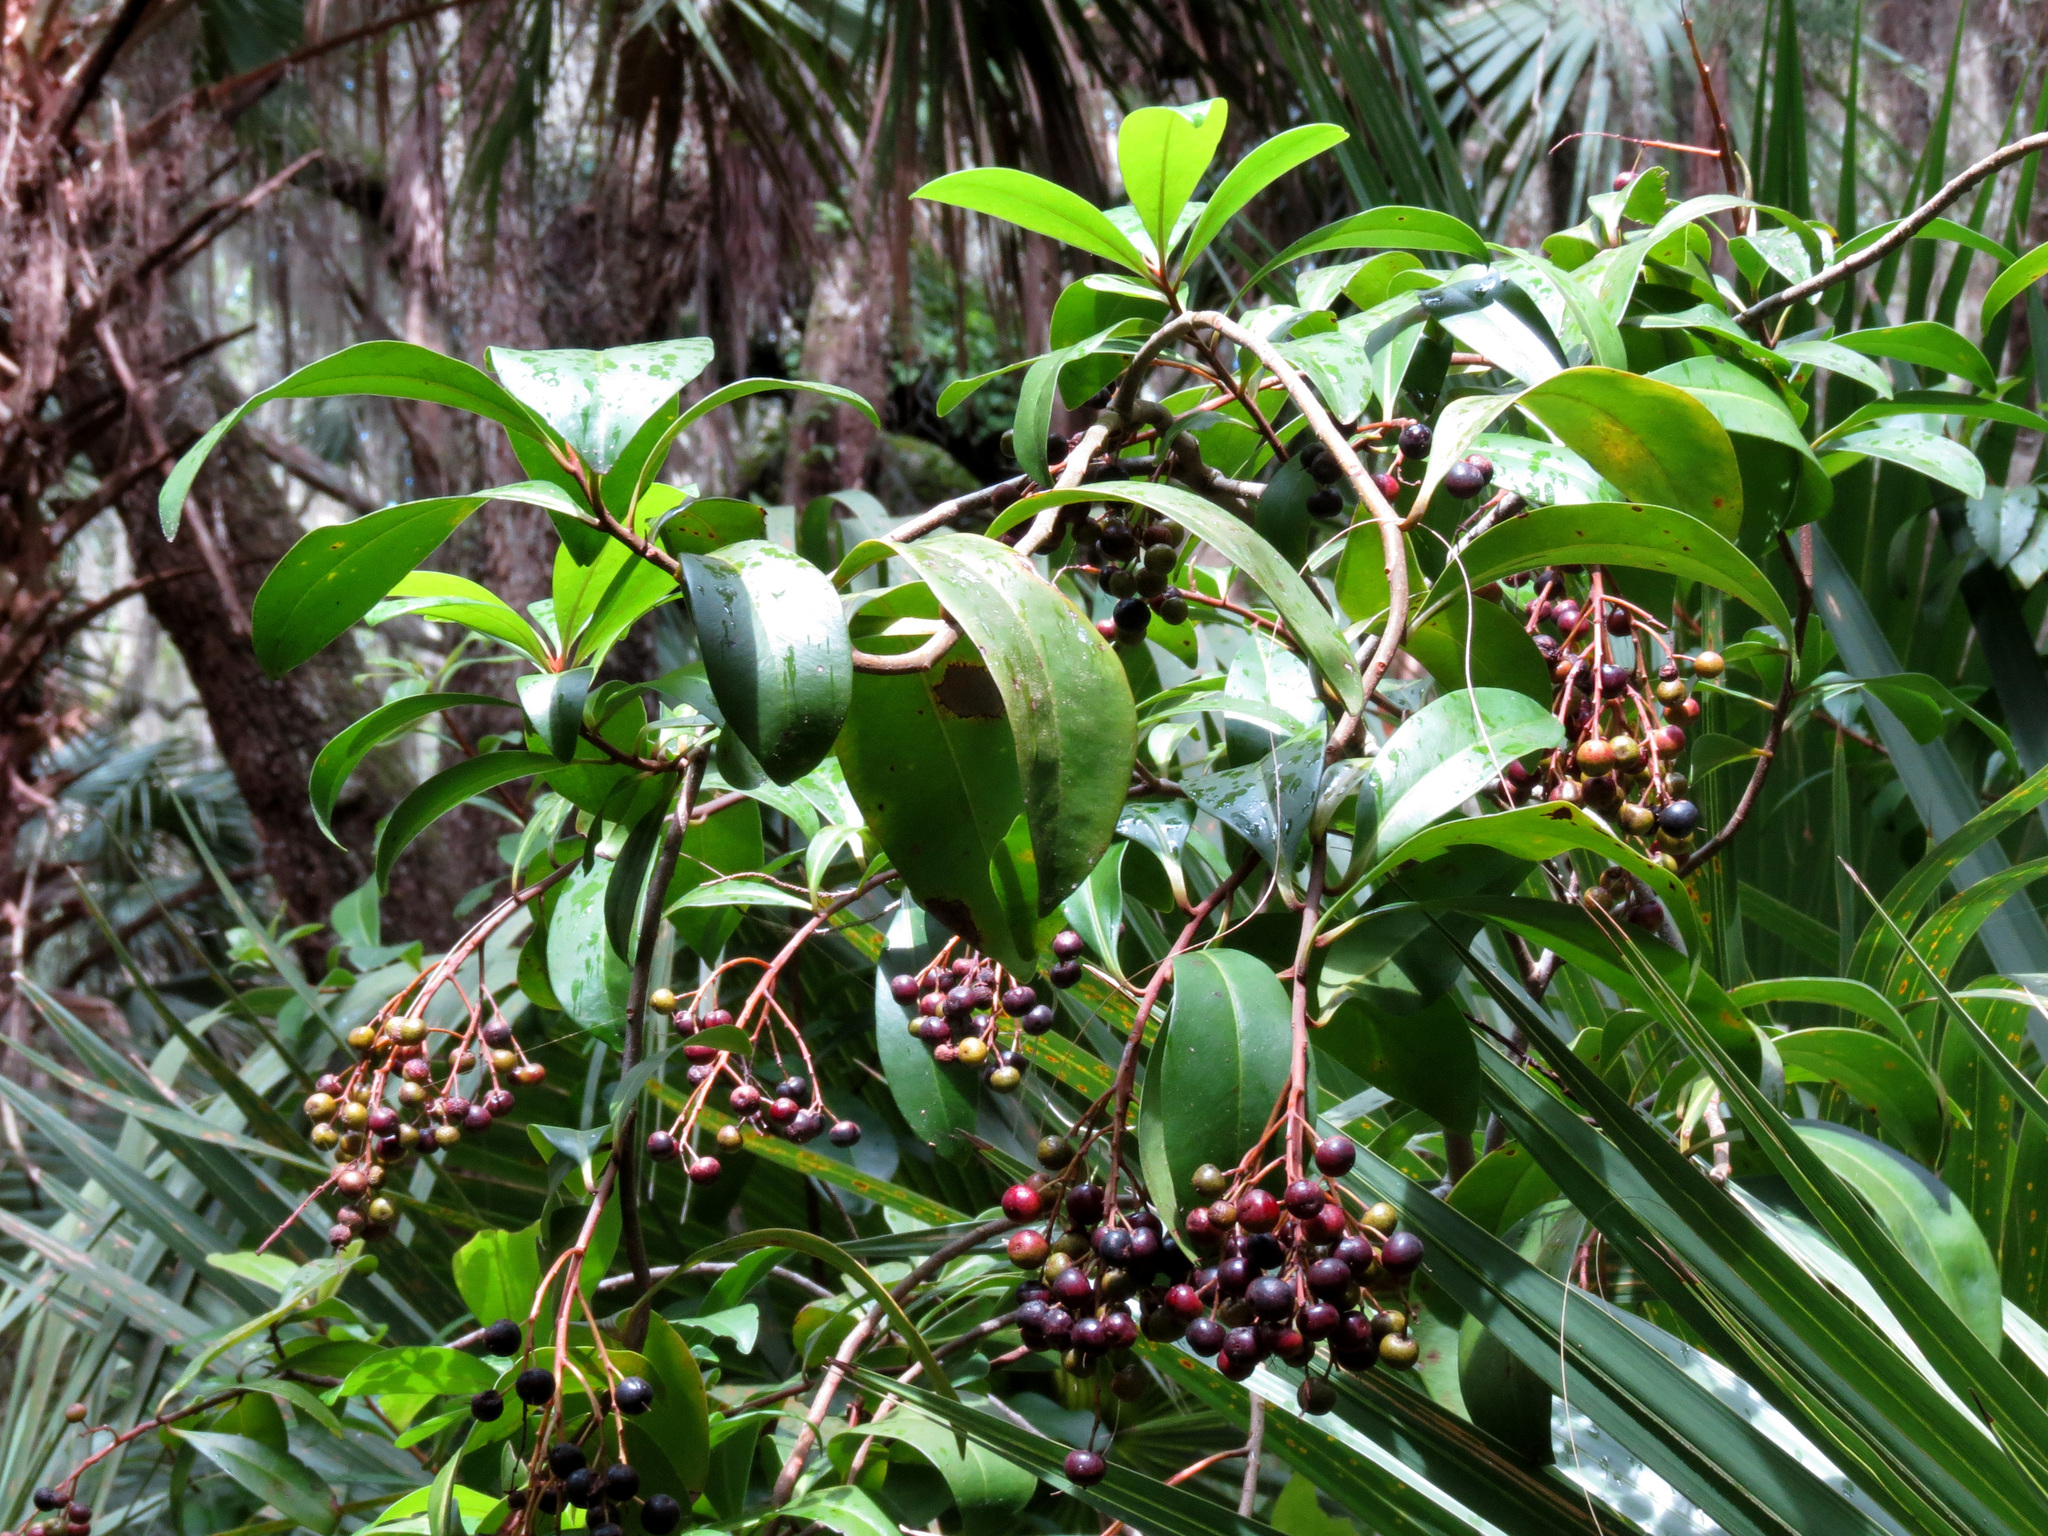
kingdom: Plantae
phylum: Tracheophyta
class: Magnoliopsida
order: Ericales
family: Primulaceae
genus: Ardisia
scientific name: Ardisia escallonioides
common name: Island marlberry
